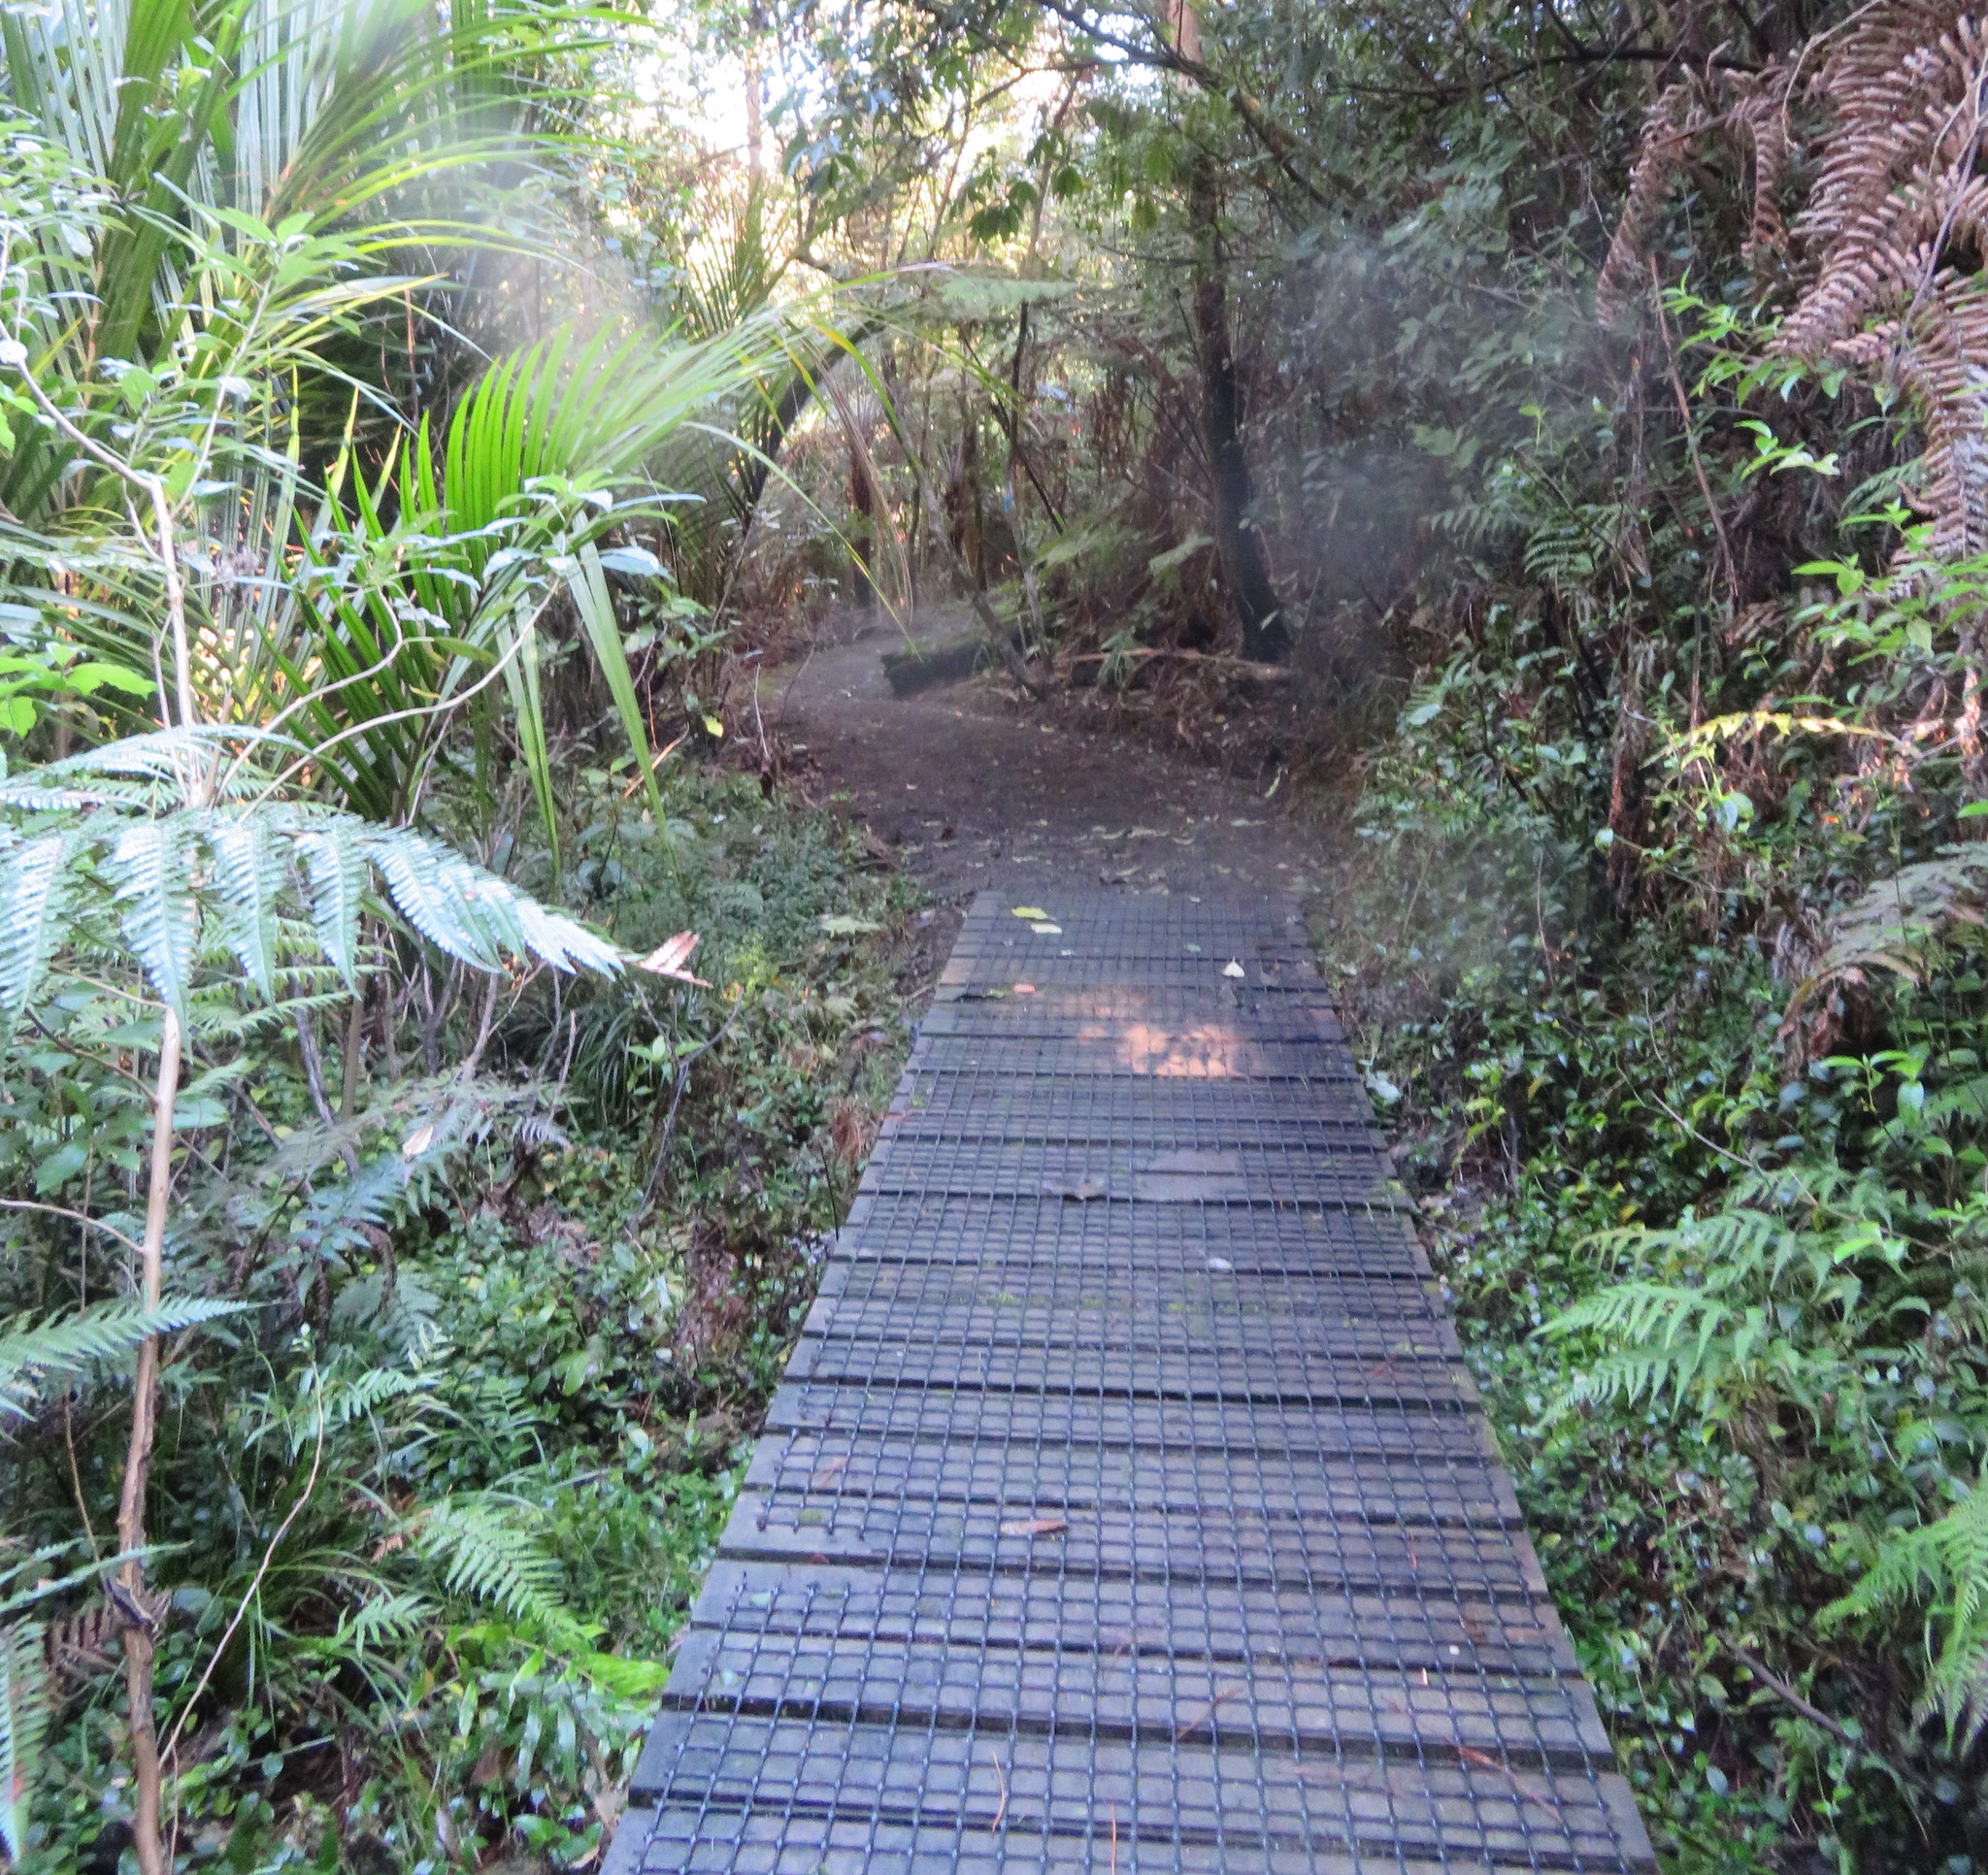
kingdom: Plantae
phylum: Tracheophyta
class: Liliopsida
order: Commelinales
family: Commelinaceae
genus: Tradescantia
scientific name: Tradescantia fluminensis
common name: Wandering-jew
